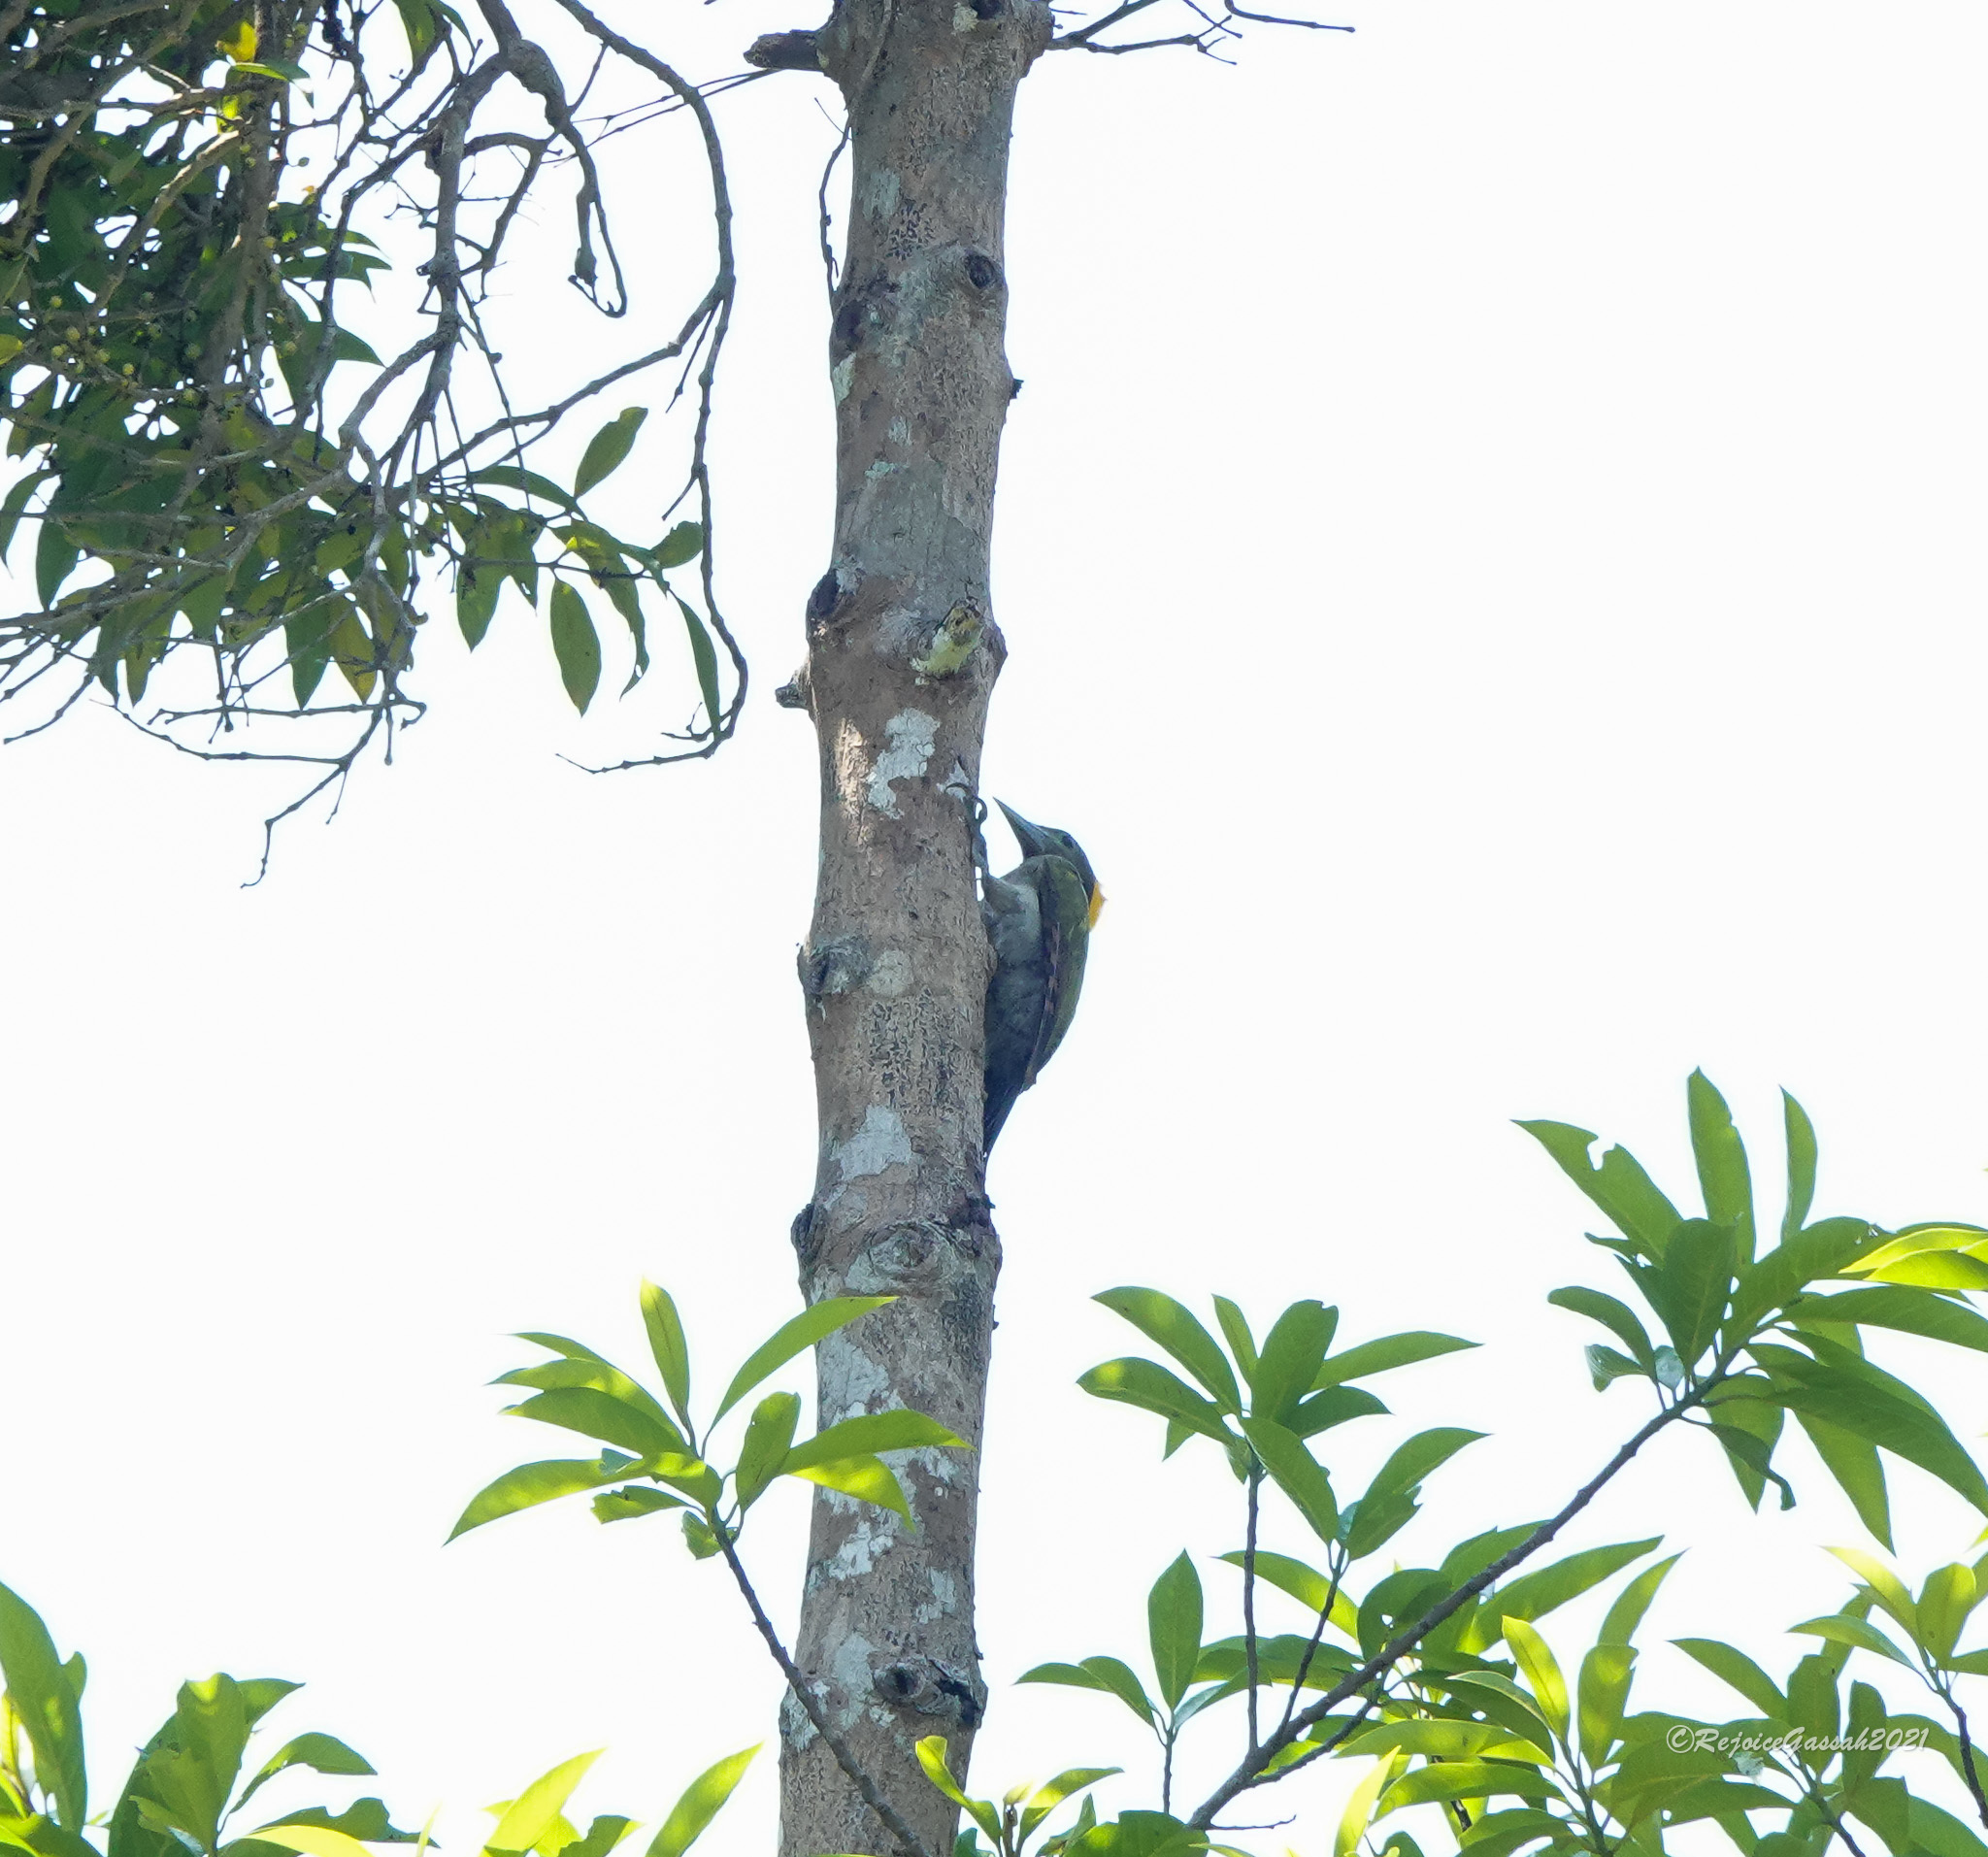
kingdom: Animalia
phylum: Chordata
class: Aves
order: Piciformes
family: Picidae
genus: Chrysophlegma
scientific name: Chrysophlegma flavinucha
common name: Greater yellownape
